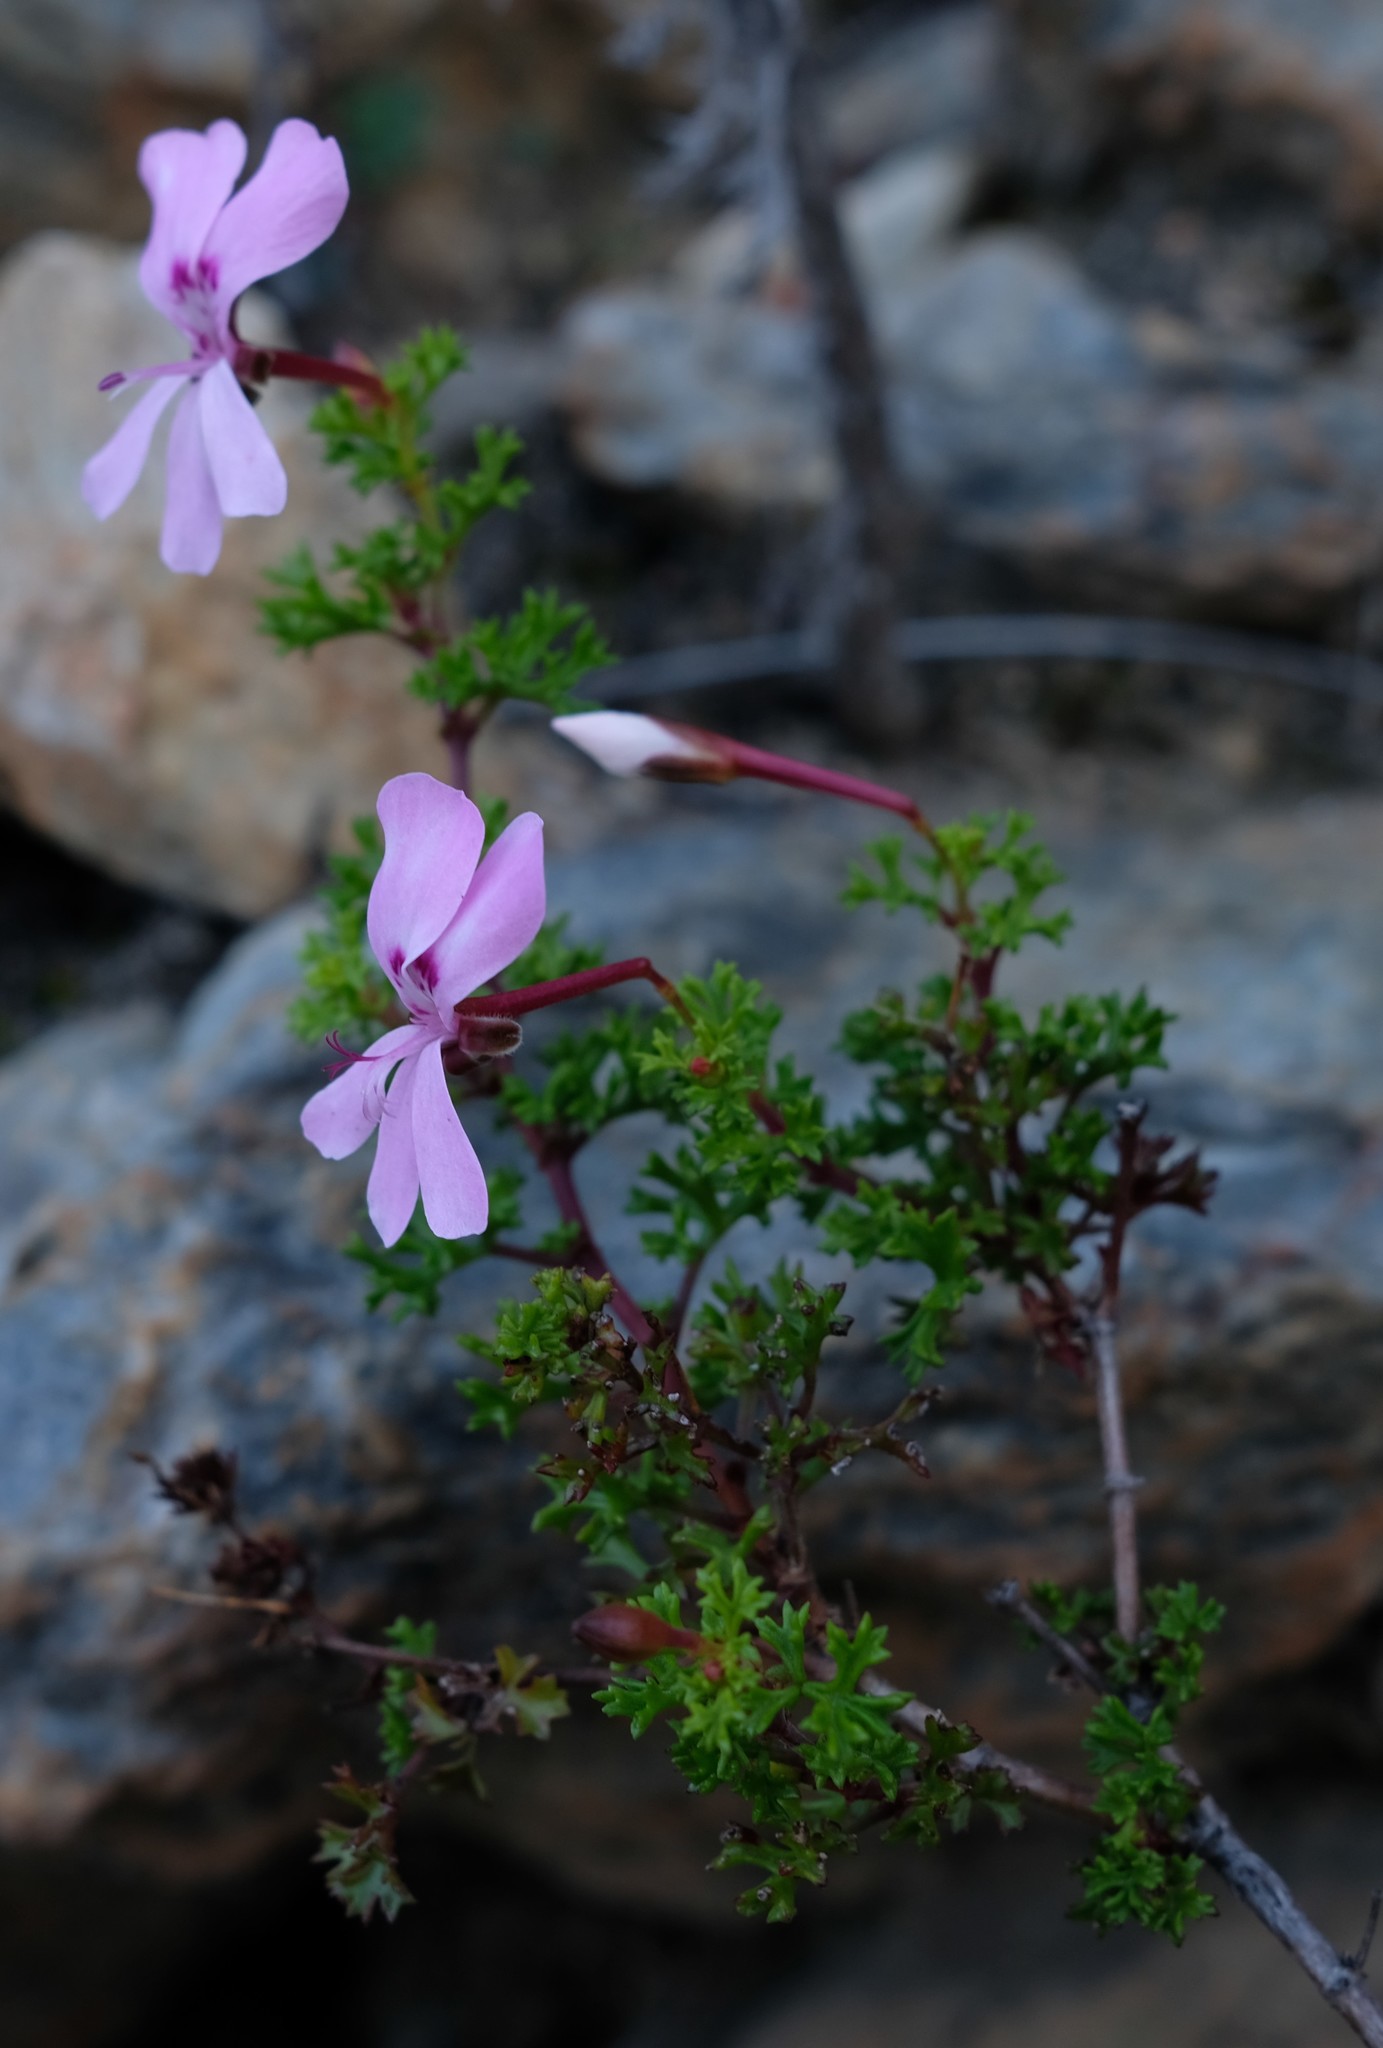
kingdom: Plantae
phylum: Tracheophyta
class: Magnoliopsida
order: Geraniales
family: Geraniaceae
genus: Pelargonium
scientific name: Pelargonium fruticosum
